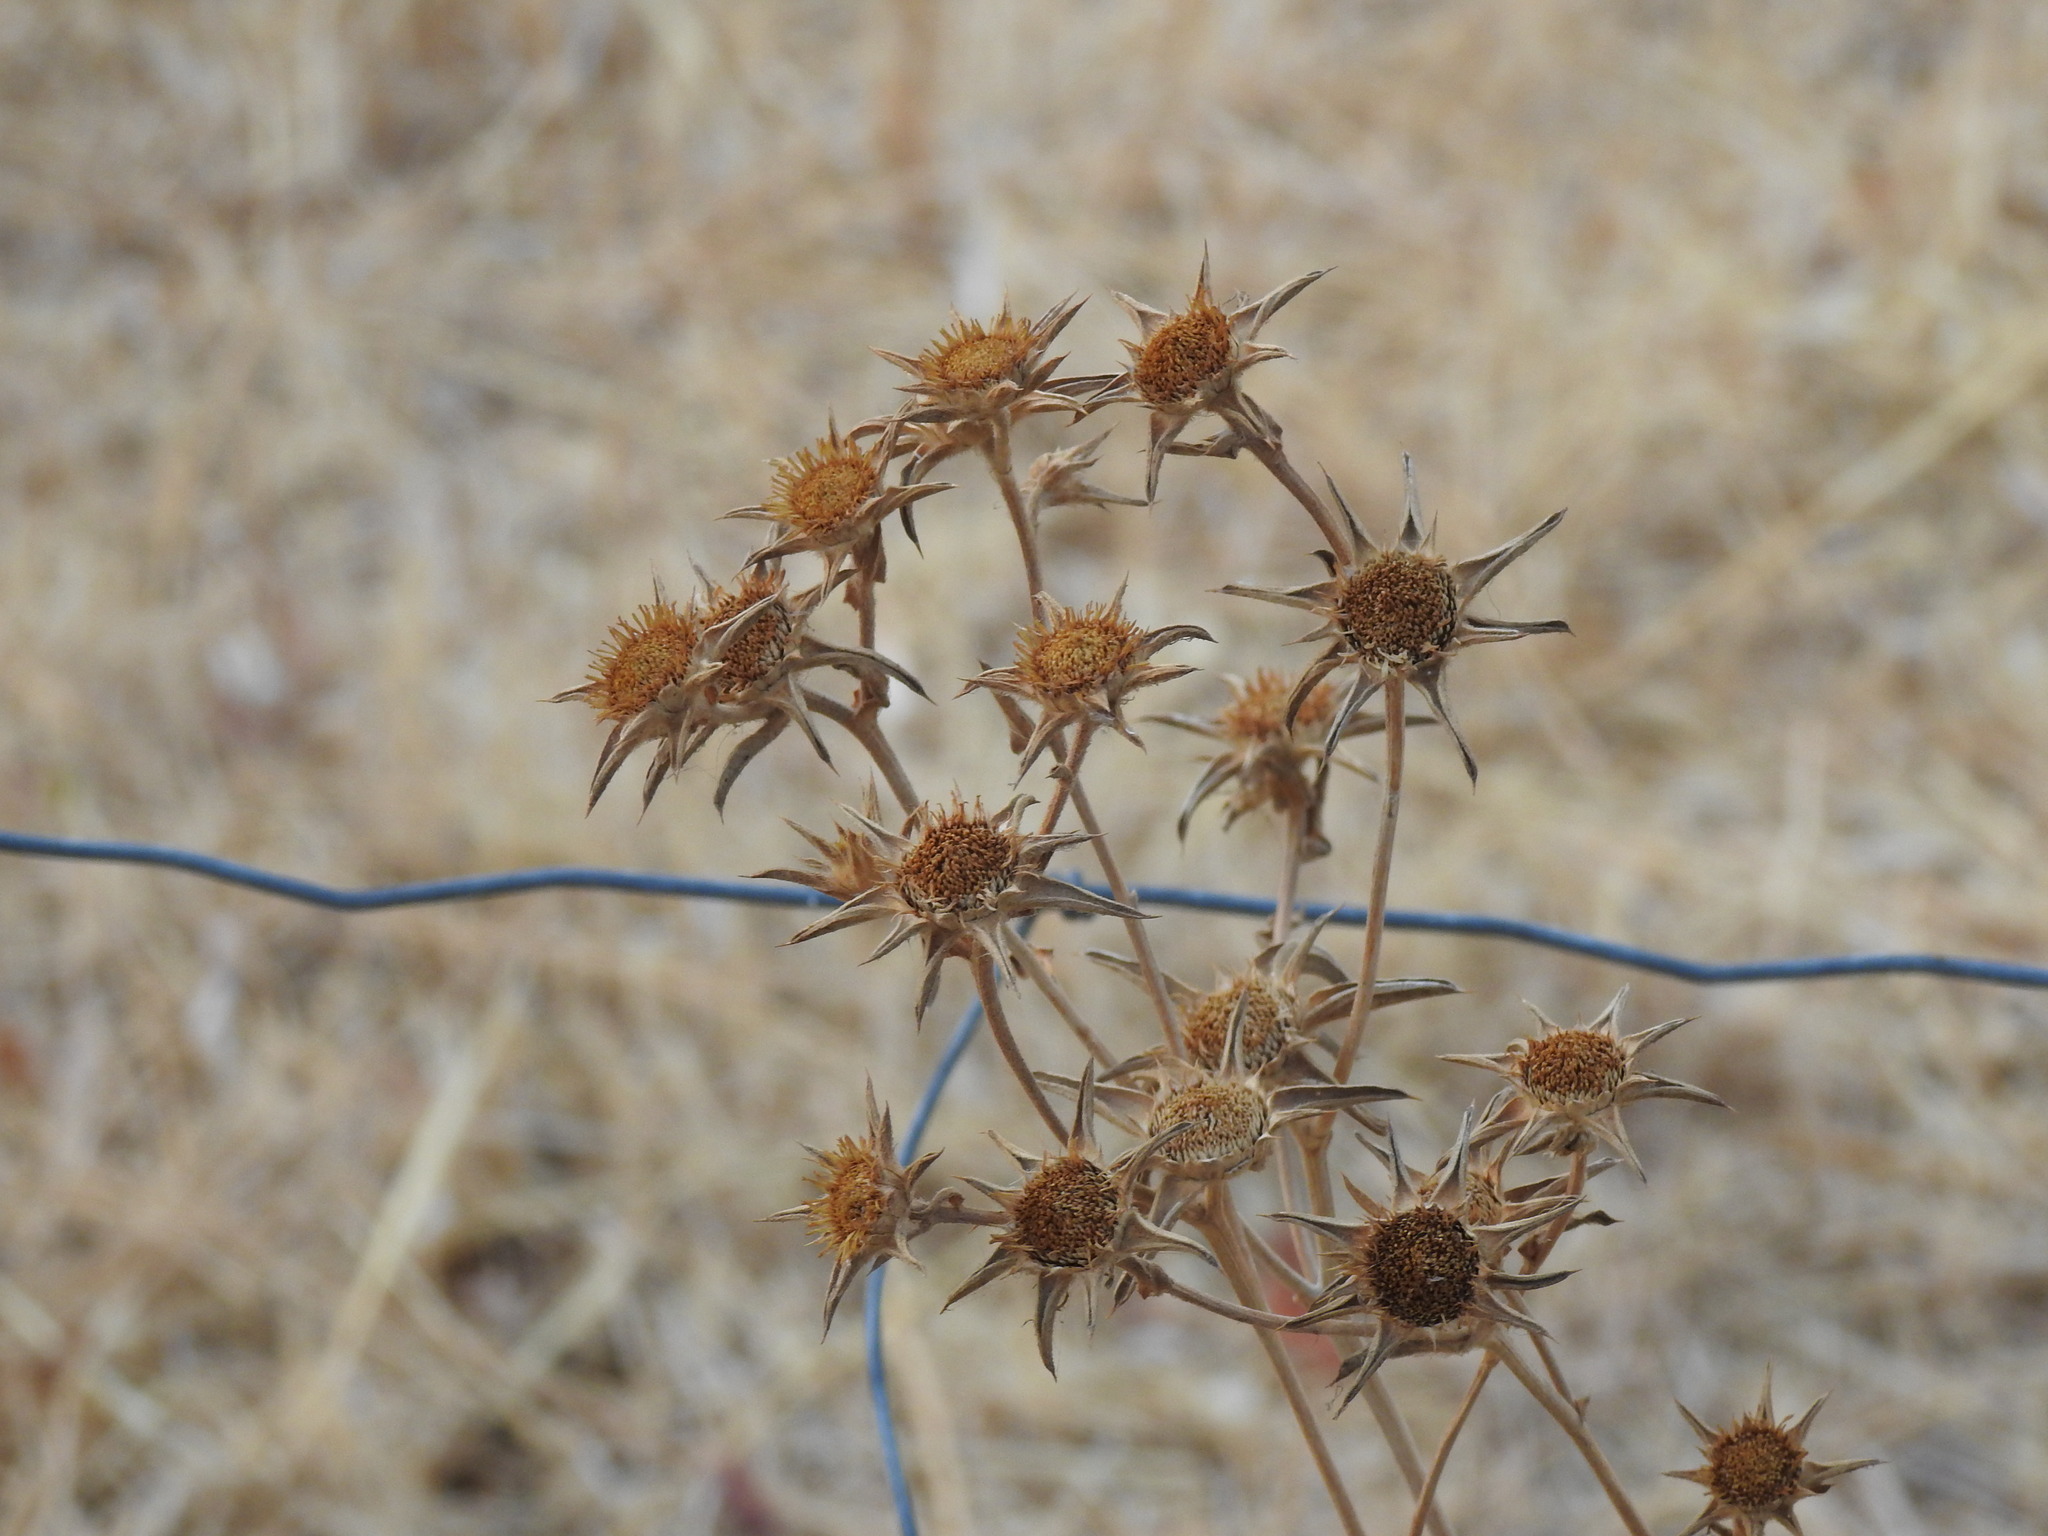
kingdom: Plantae
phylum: Tracheophyta
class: Magnoliopsida
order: Asterales
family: Asteraceae
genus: Pallenis
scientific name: Pallenis spinosa
